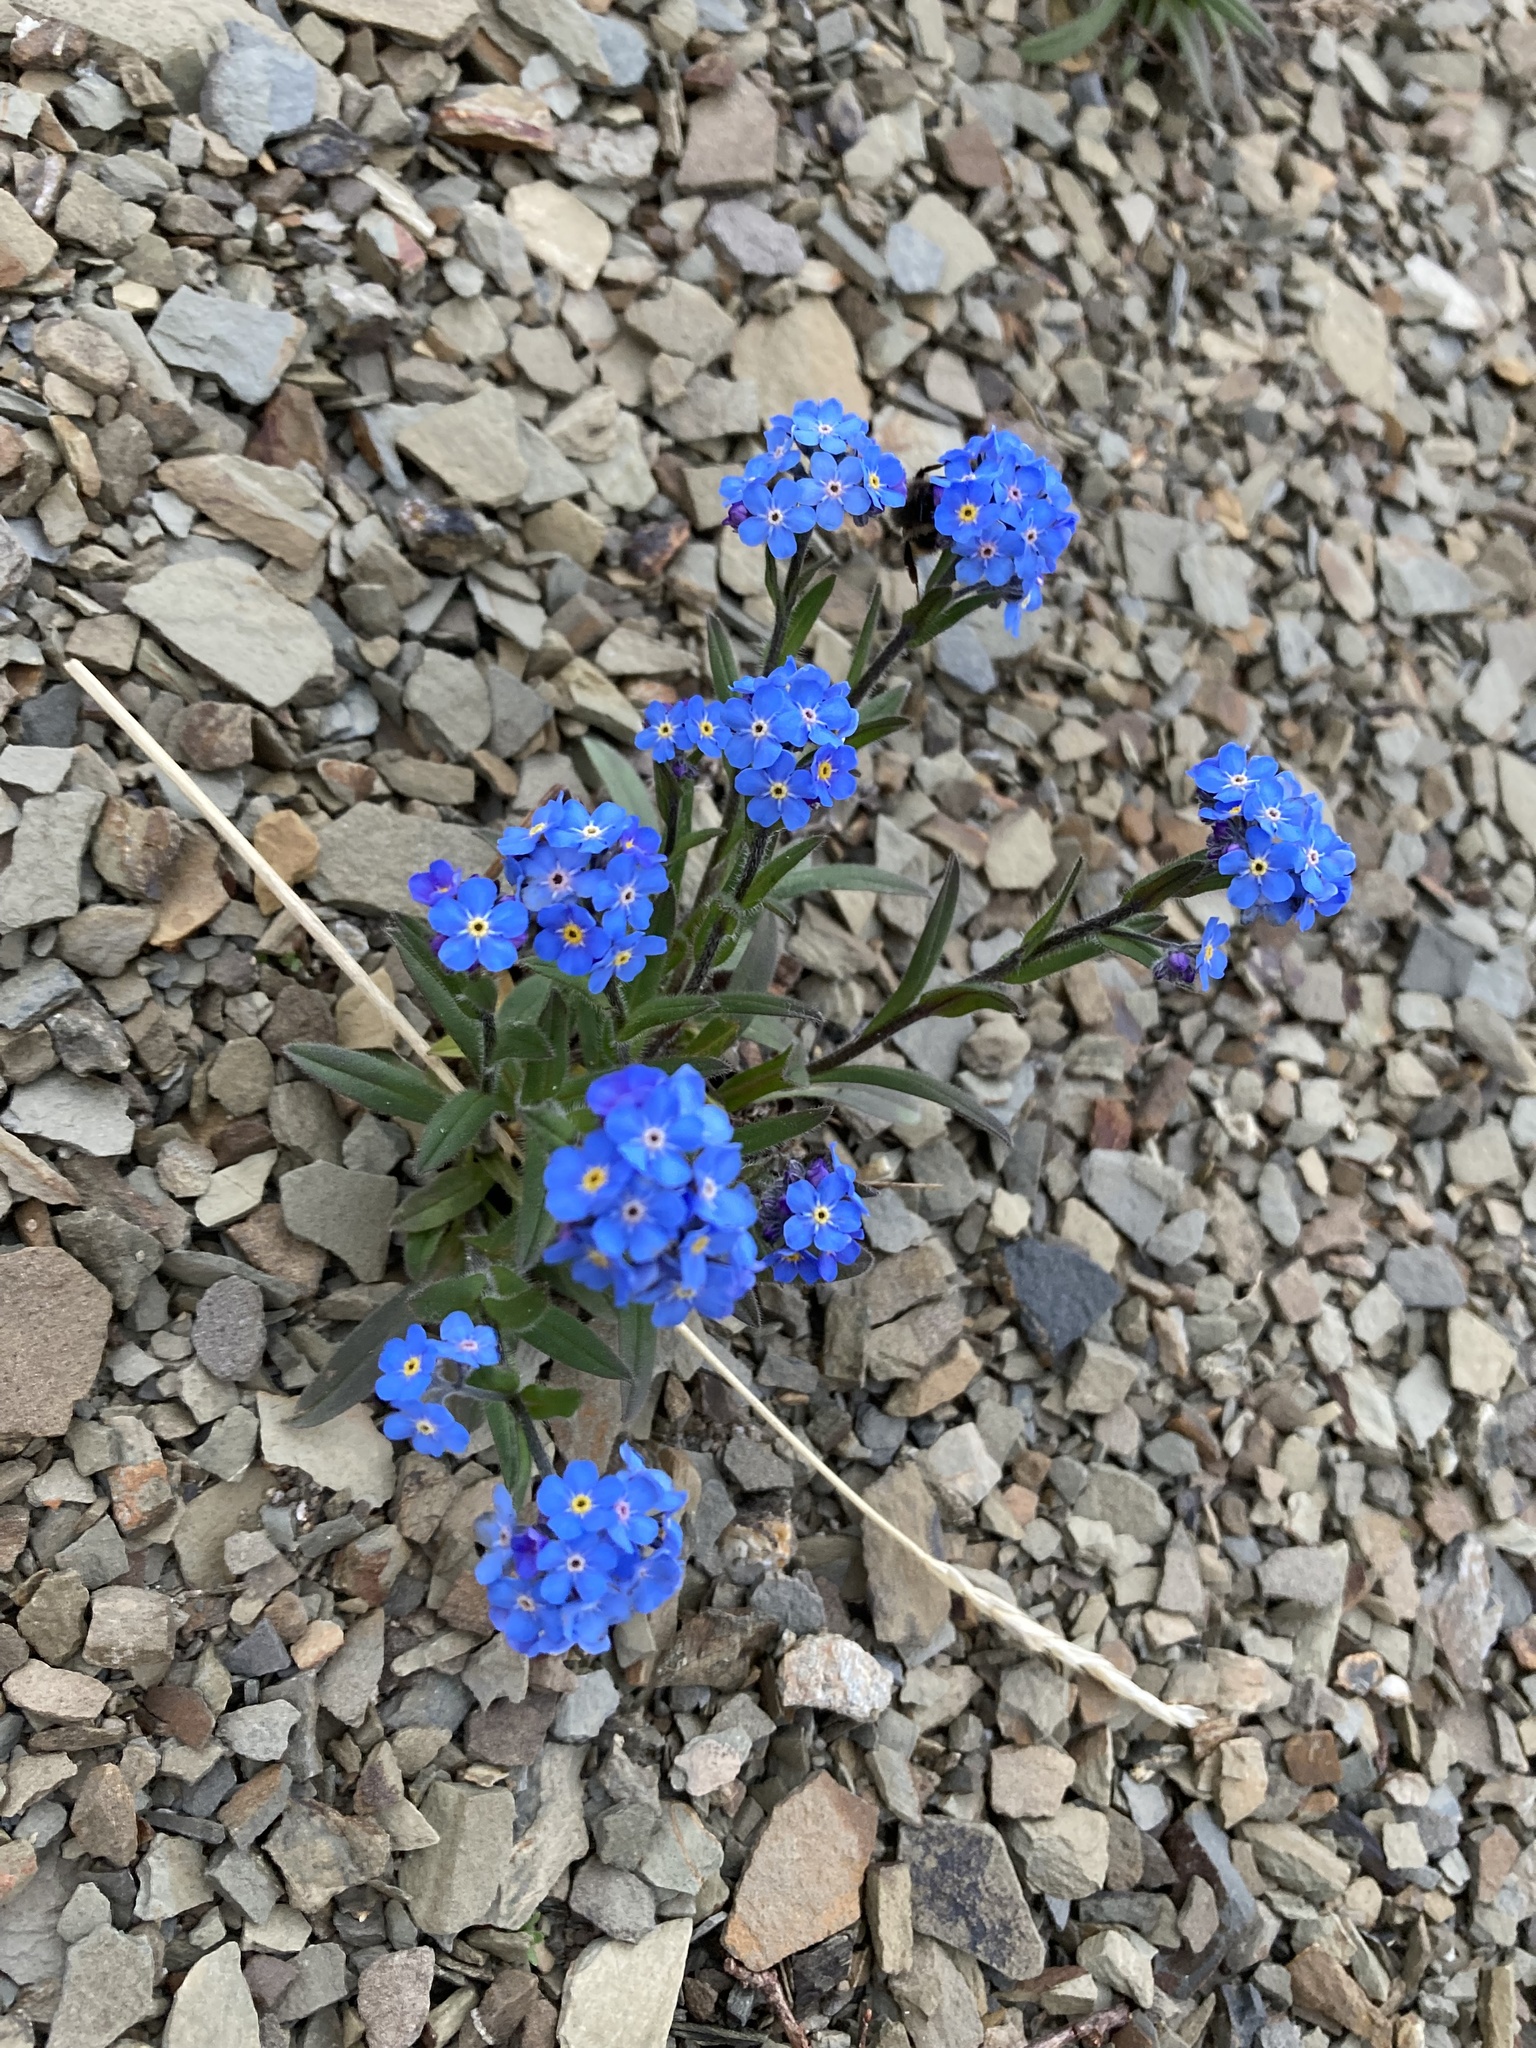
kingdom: Plantae
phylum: Tracheophyta
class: Magnoliopsida
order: Boraginales
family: Boraginaceae
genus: Myosotis
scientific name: Myosotis asiatica
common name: Asian forget-me-not
